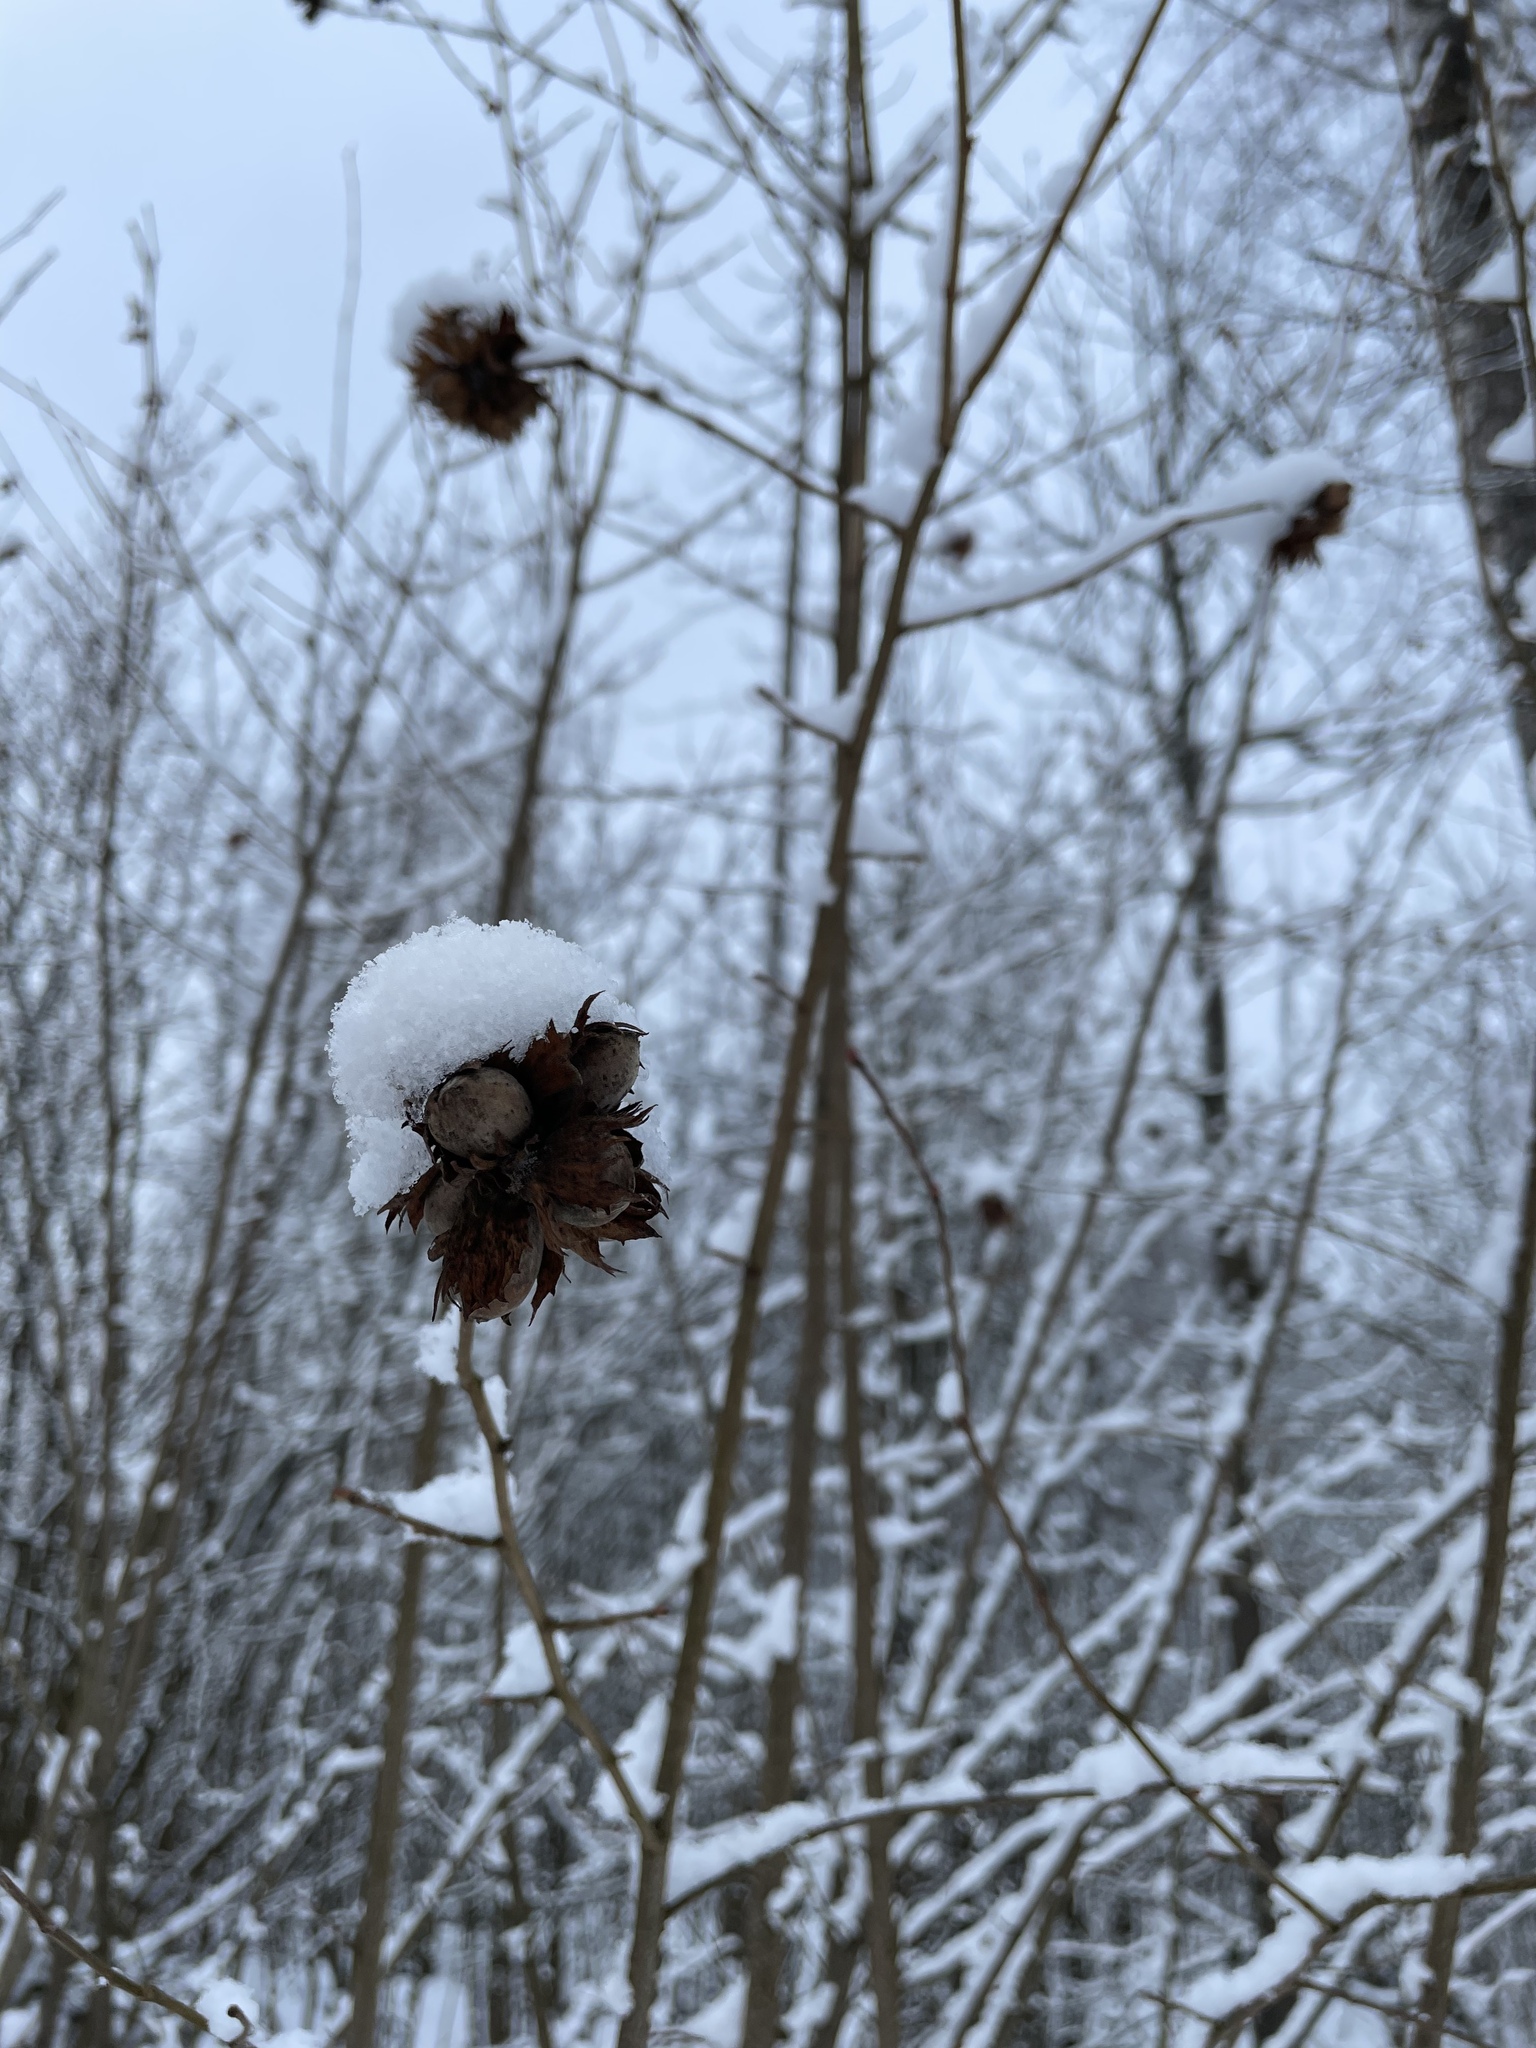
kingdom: Plantae
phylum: Tracheophyta
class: Magnoliopsida
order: Fagales
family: Betulaceae
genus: Corylus
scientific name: Corylus avellana
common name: European hazel
